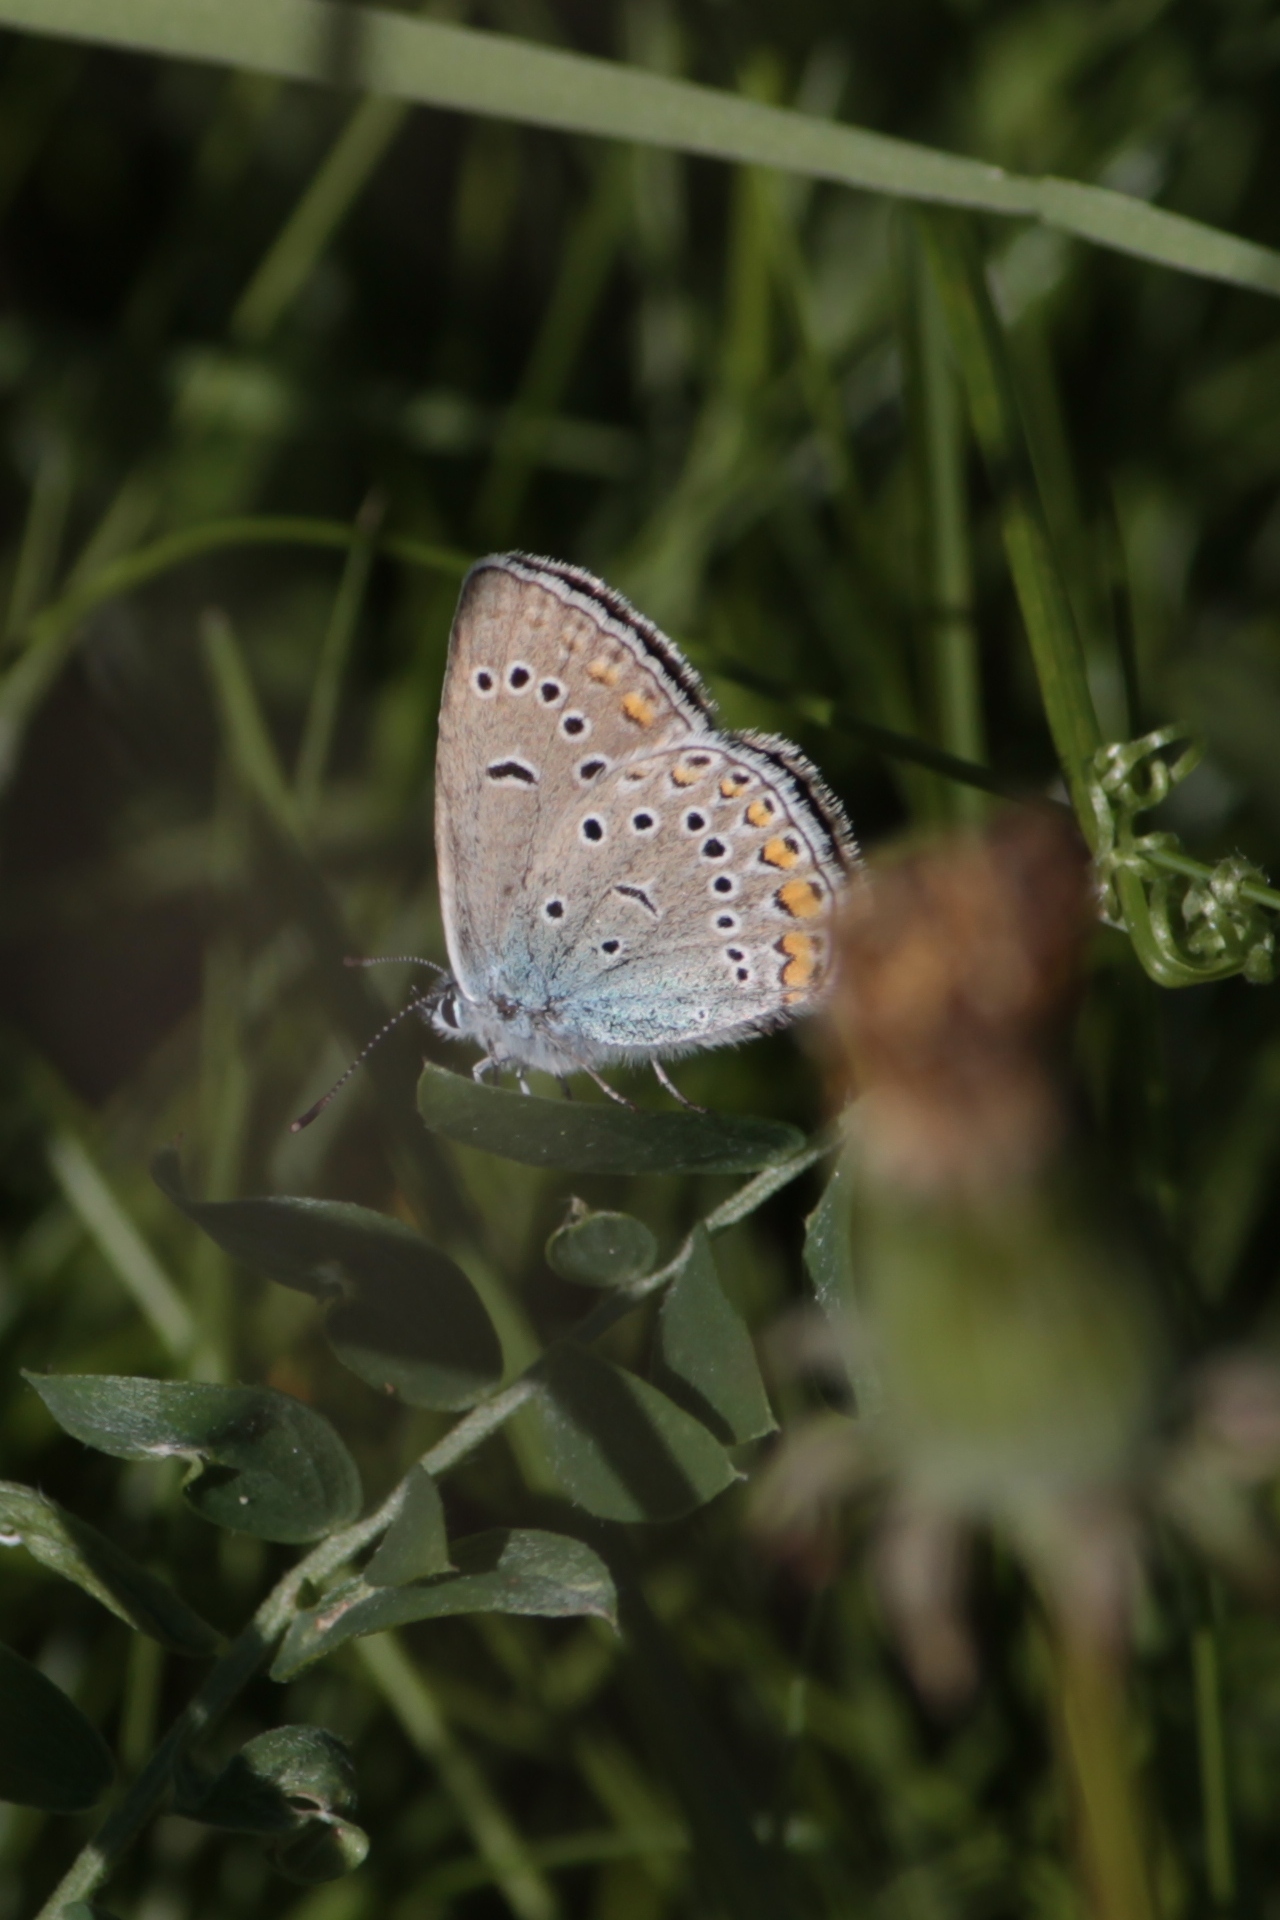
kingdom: Animalia
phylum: Arthropoda
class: Insecta
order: Lepidoptera
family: Lycaenidae
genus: Plebejus
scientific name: Plebejus amanda
